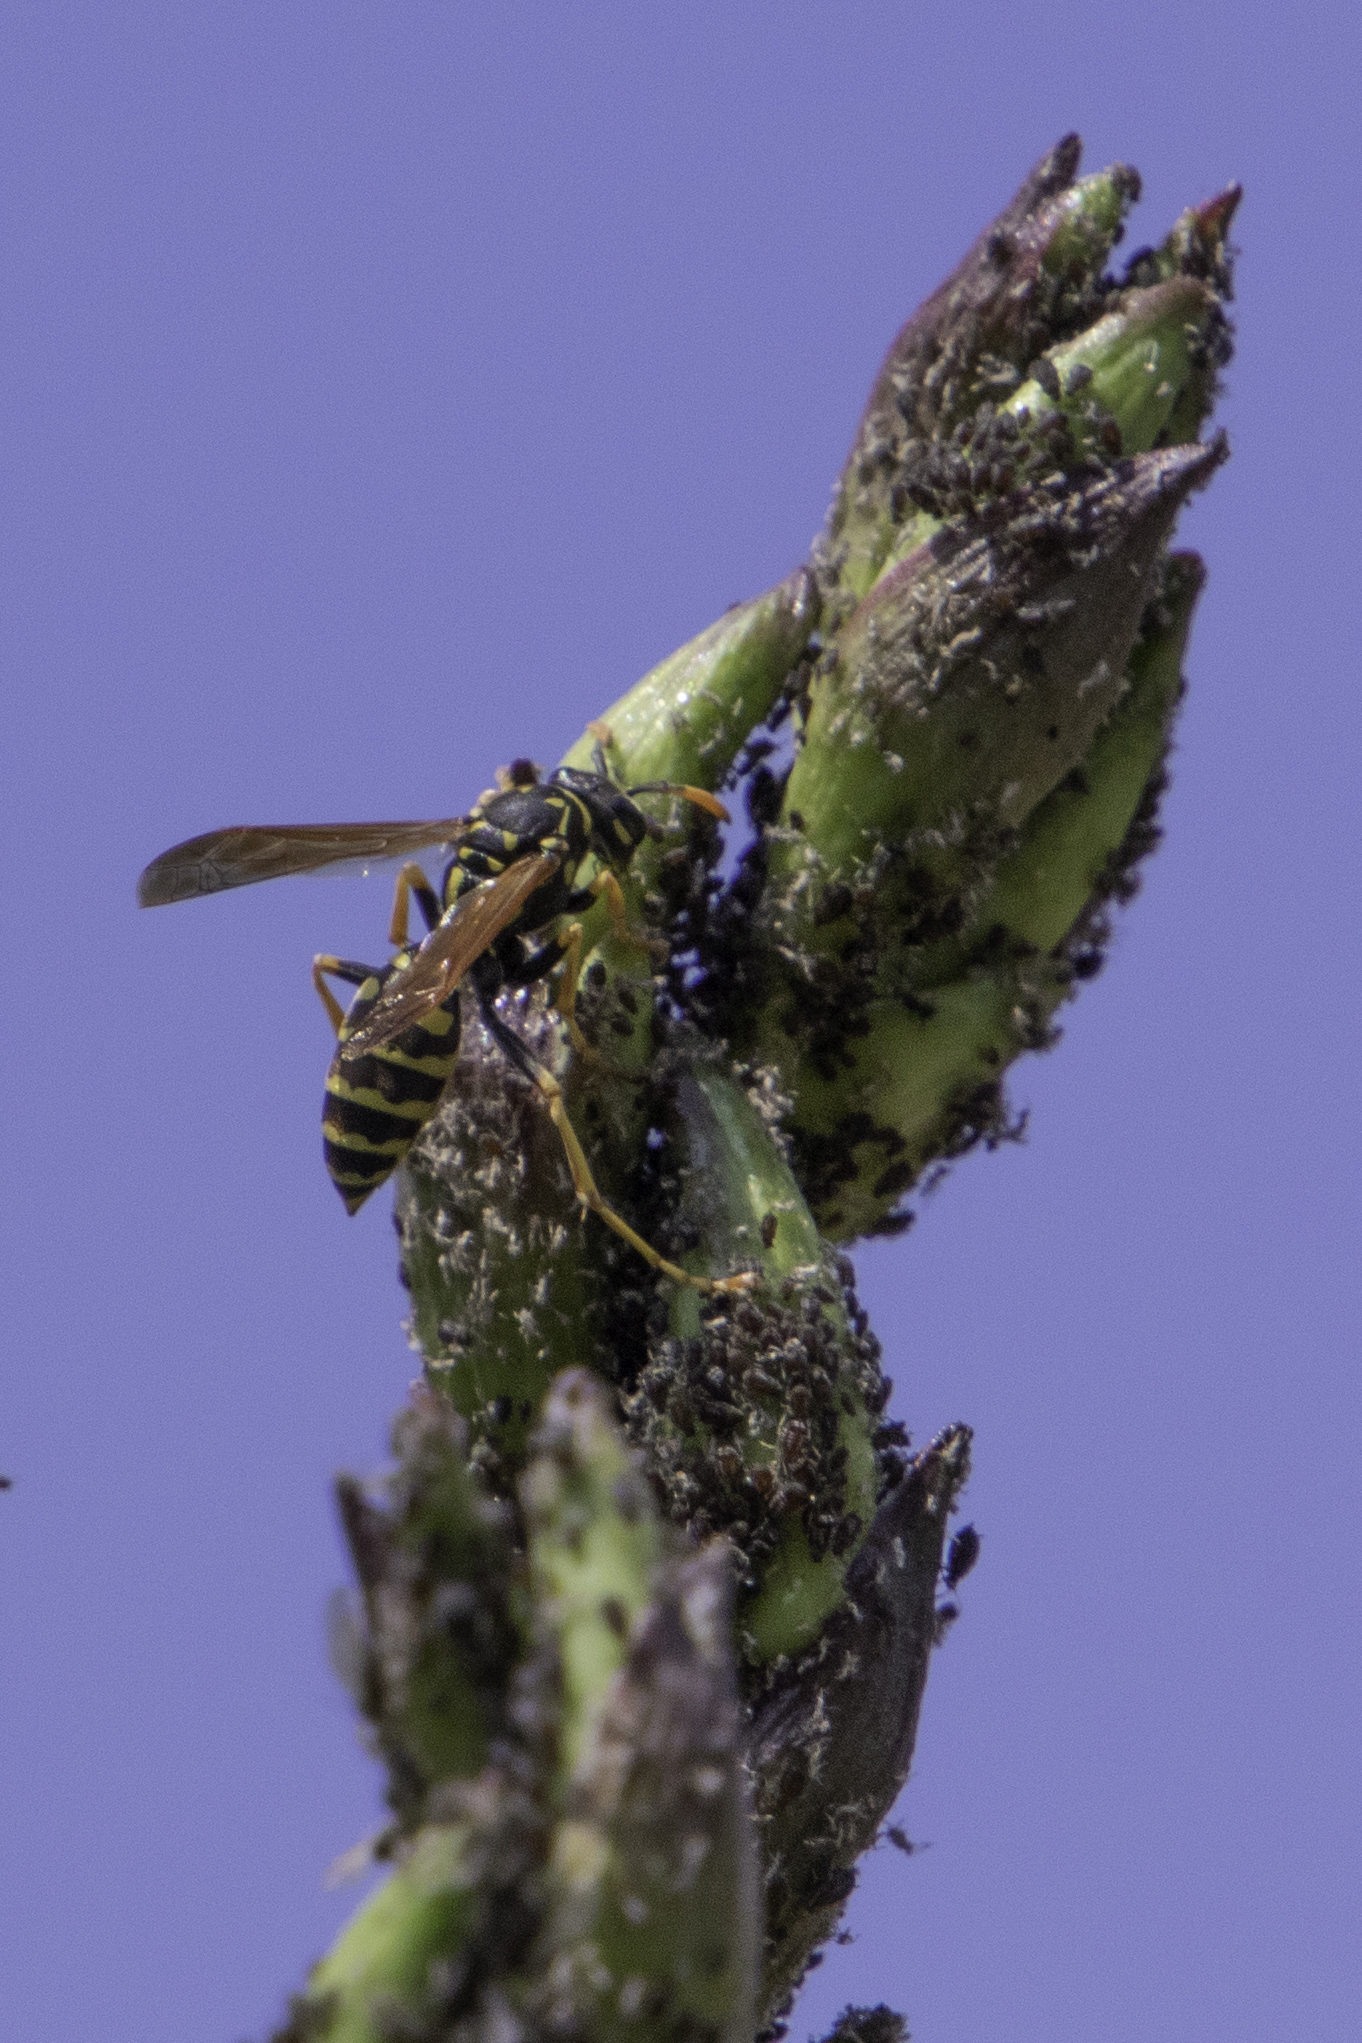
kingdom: Animalia
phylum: Arthropoda
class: Insecta
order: Hymenoptera
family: Eumenidae
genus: Polistes
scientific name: Polistes dominula
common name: Paper wasp
